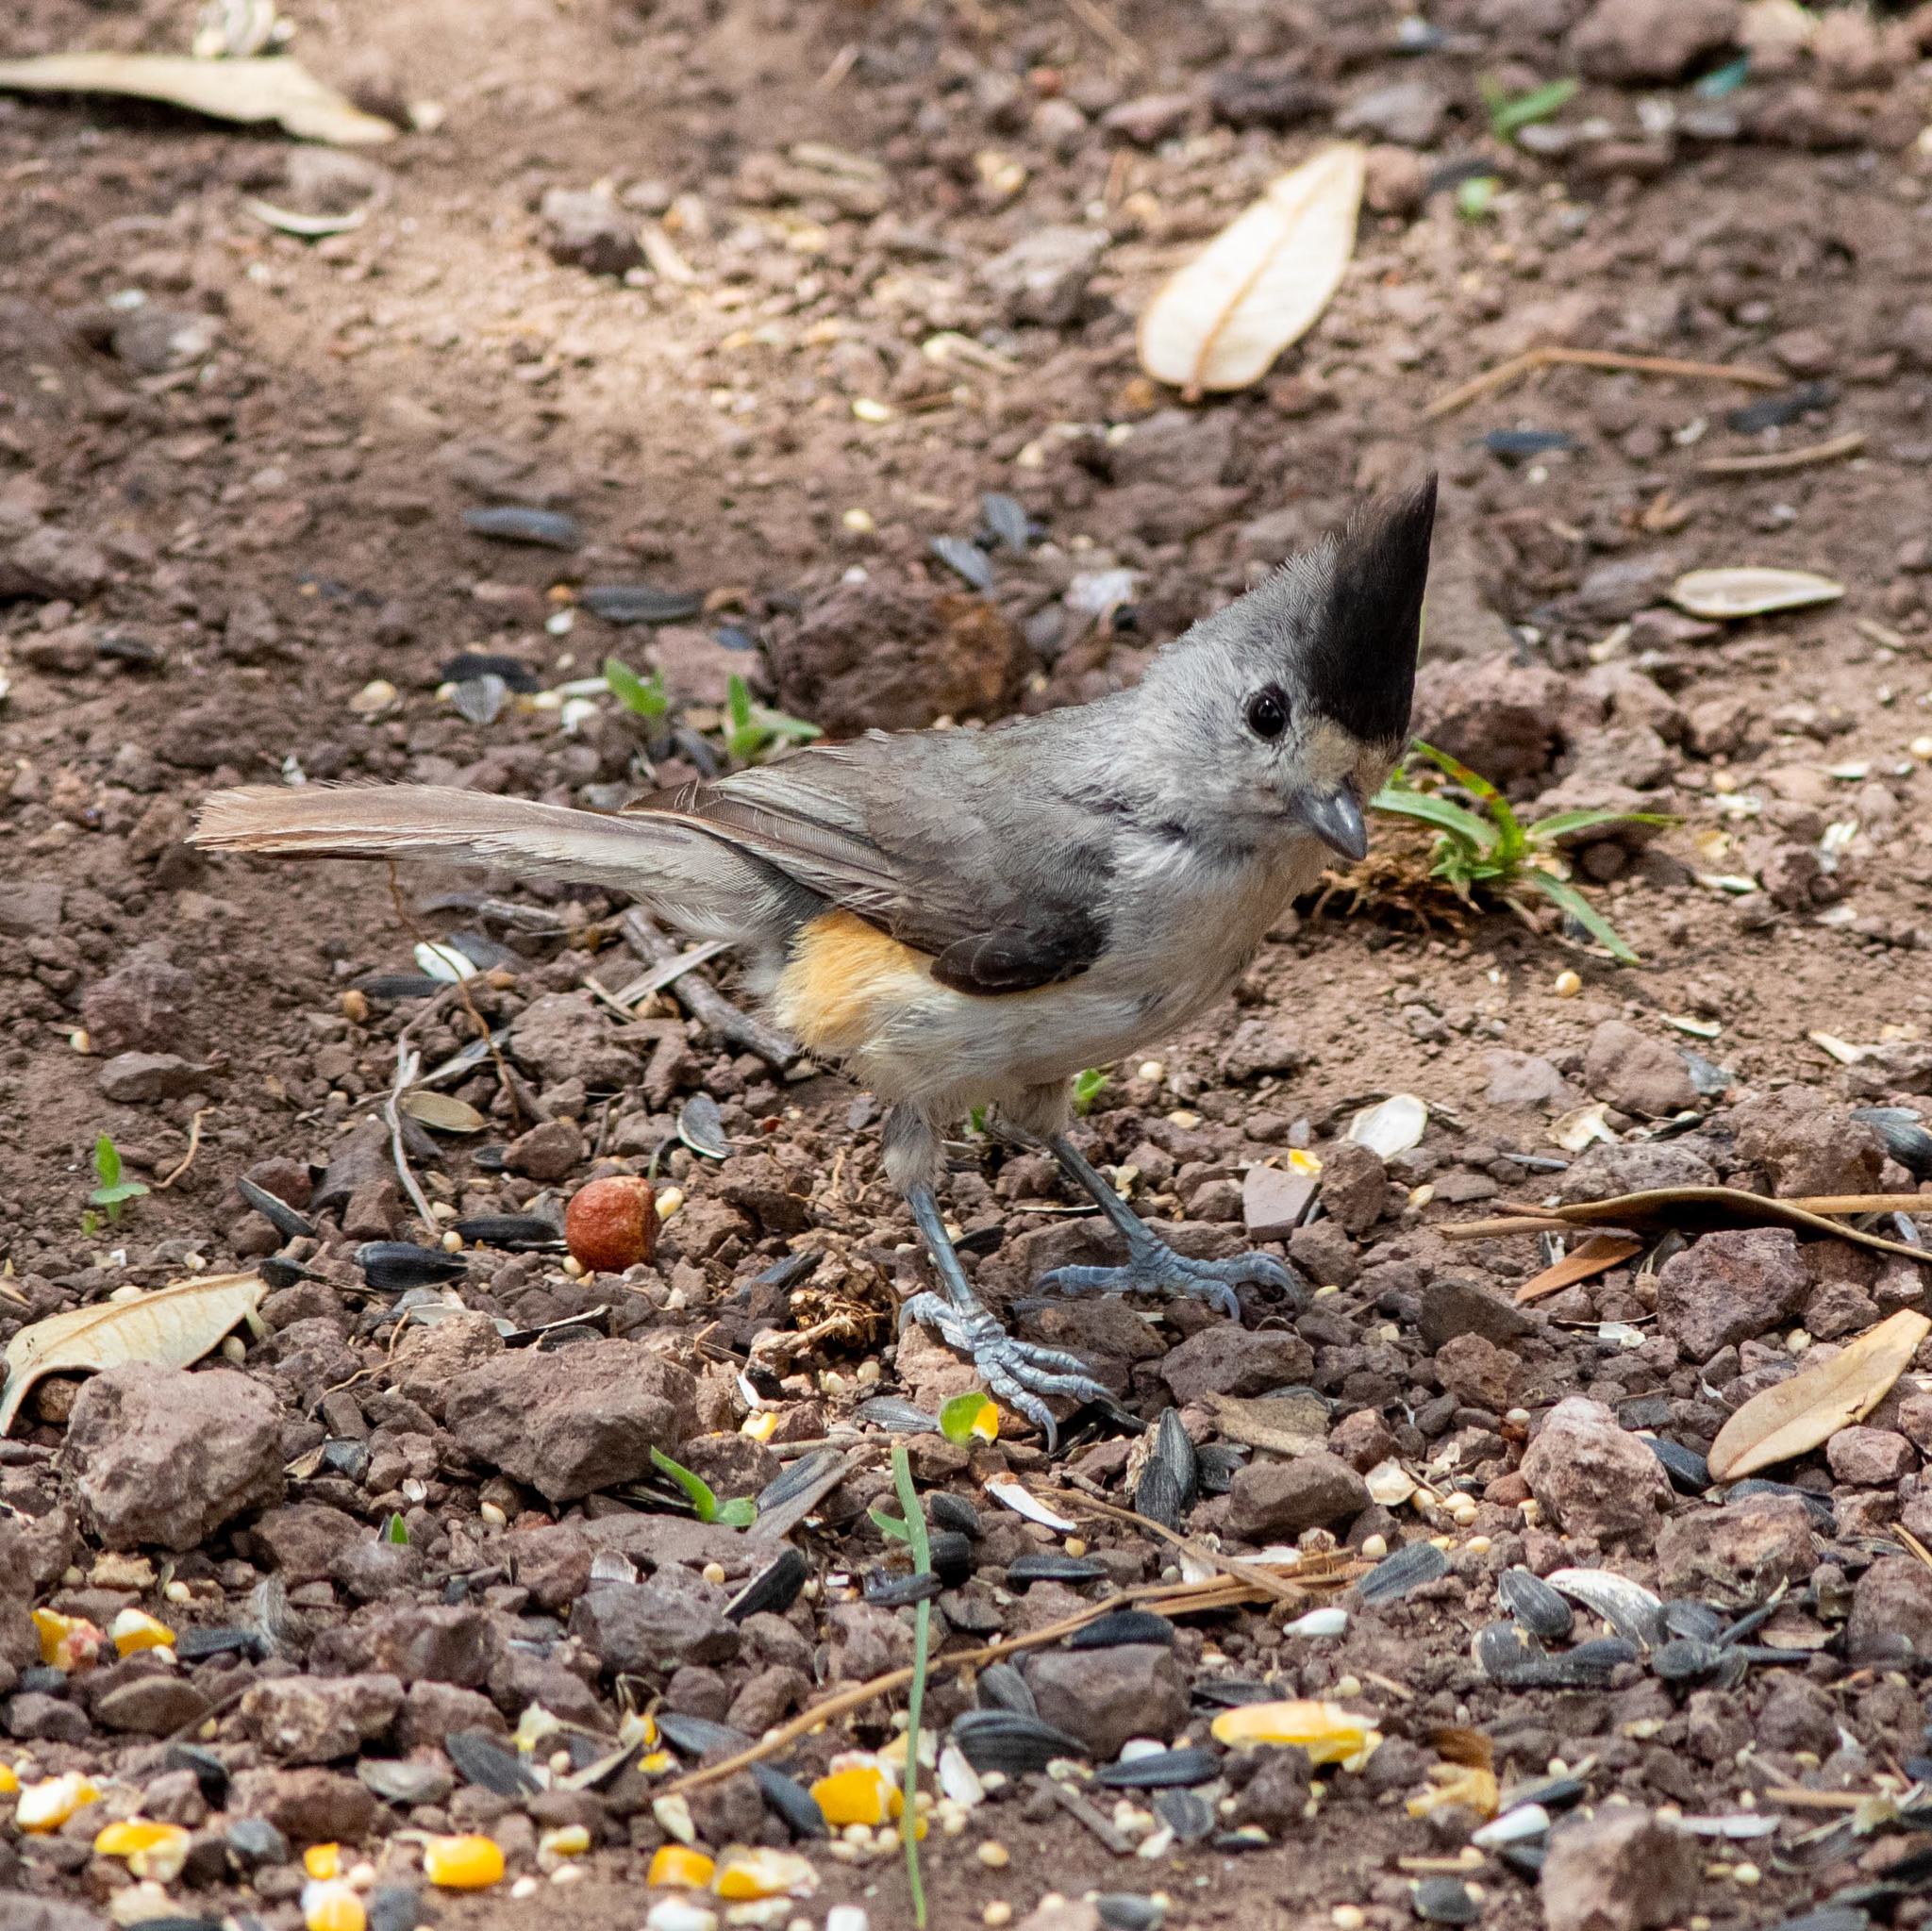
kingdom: Animalia
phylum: Chordata
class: Aves
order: Passeriformes
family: Paridae
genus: Baeolophus
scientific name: Baeolophus atricristatus
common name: Black-crested titmouse
